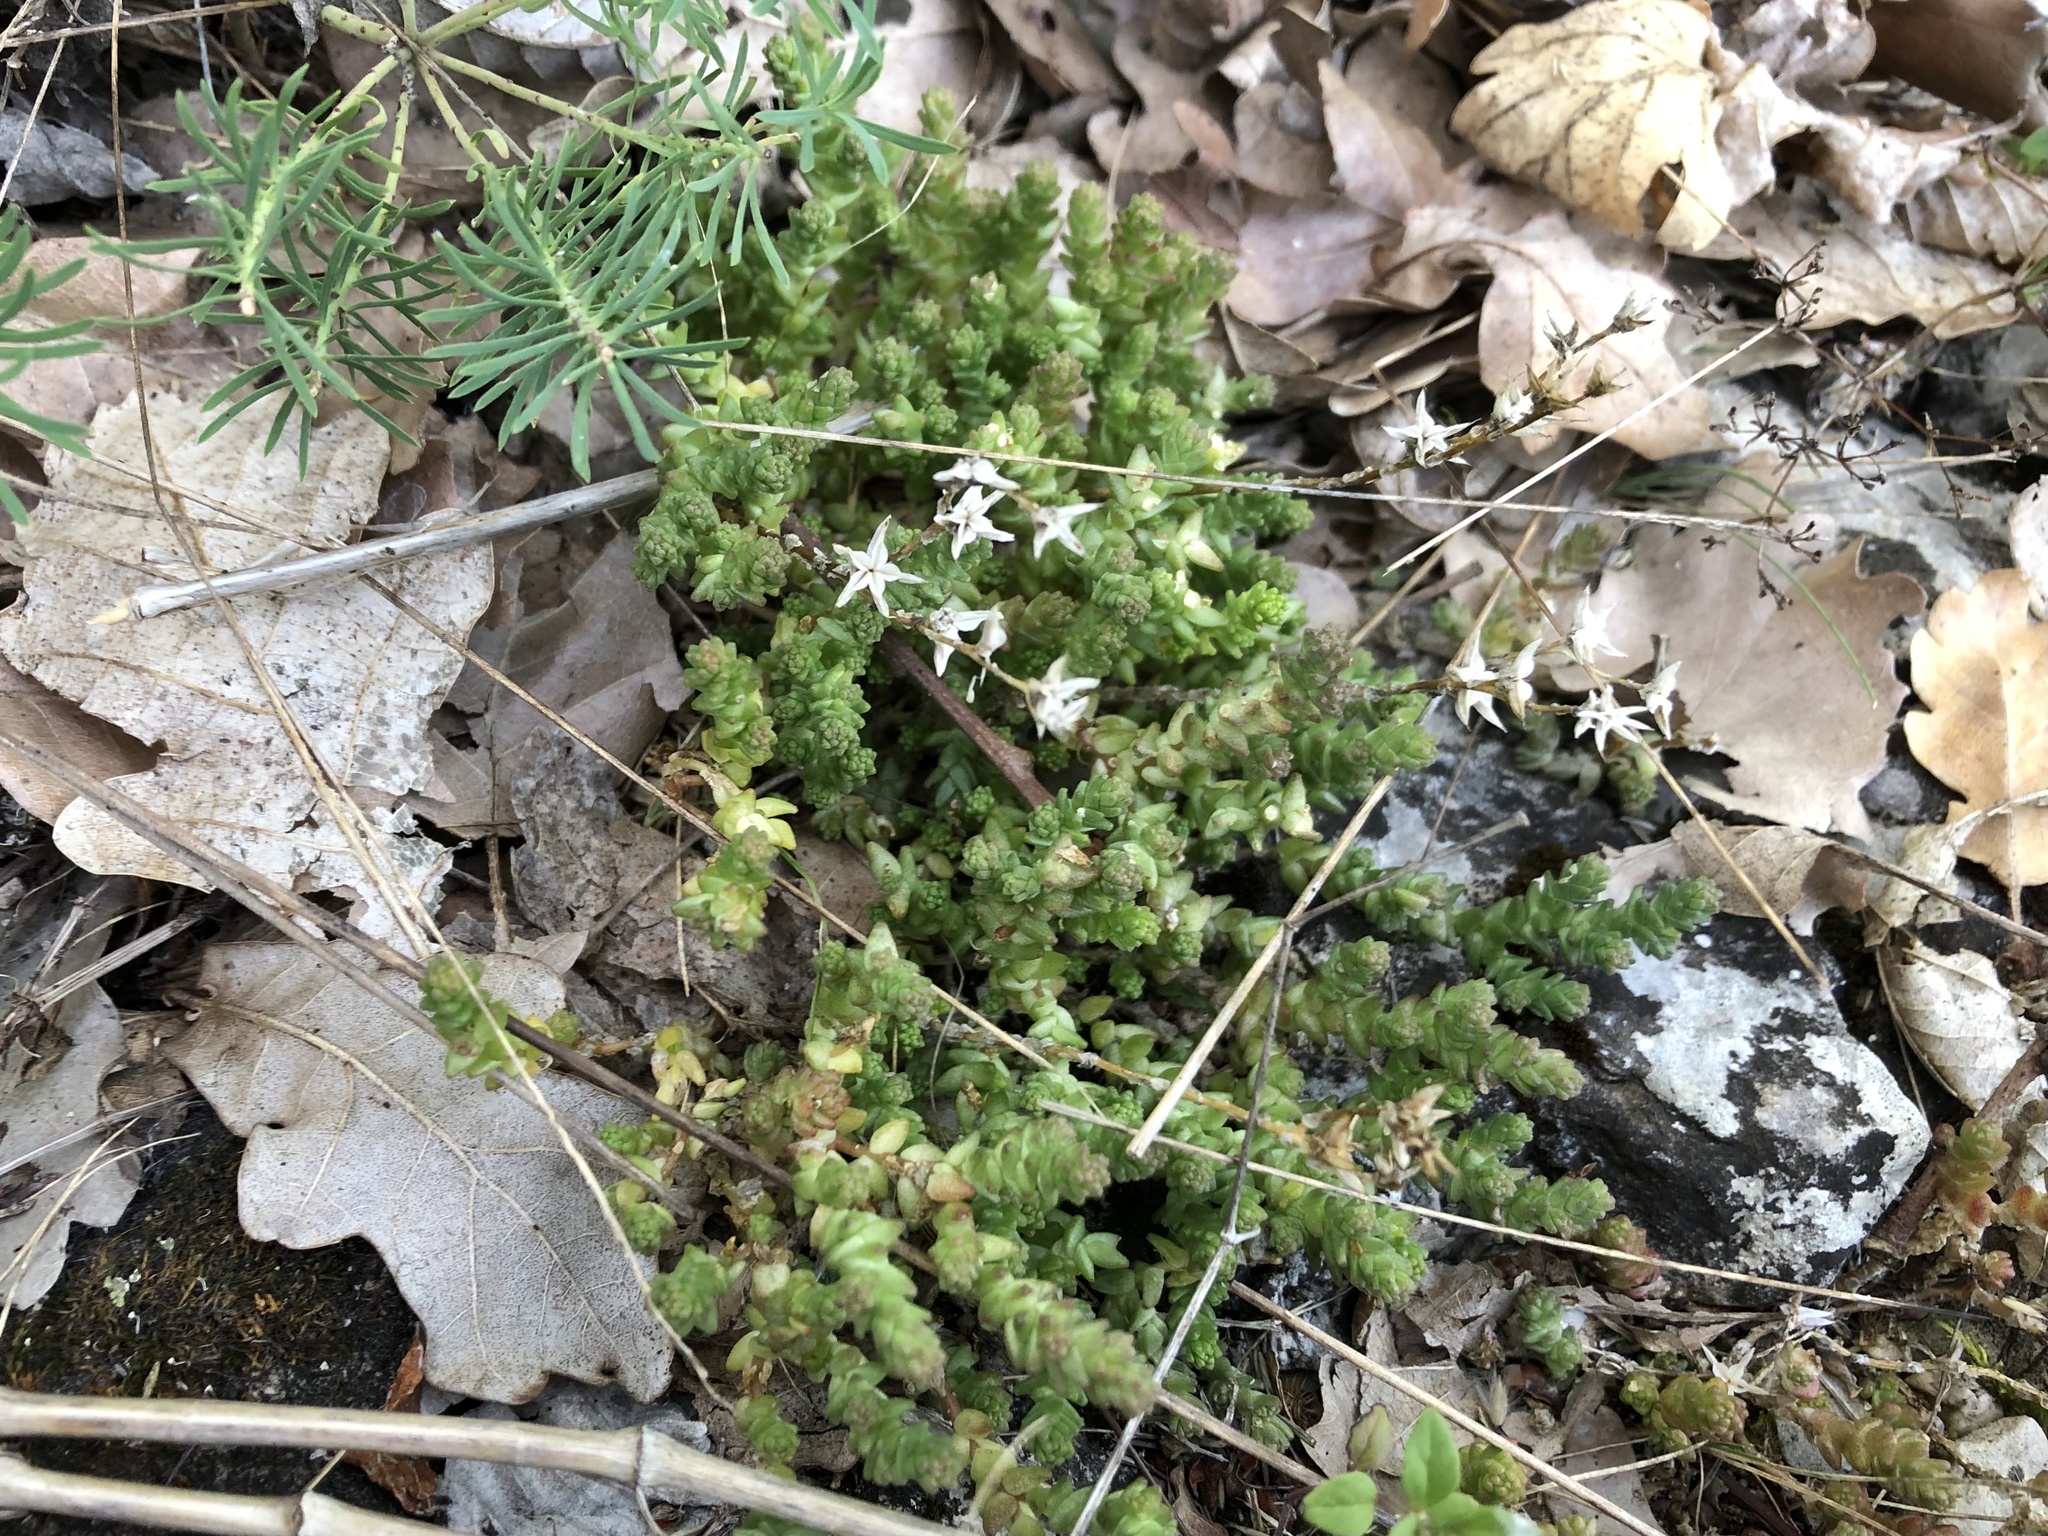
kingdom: Plantae
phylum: Tracheophyta
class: Magnoliopsida
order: Saxifragales
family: Crassulaceae
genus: Sedum
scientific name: Sedum acre
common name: Biting stonecrop
